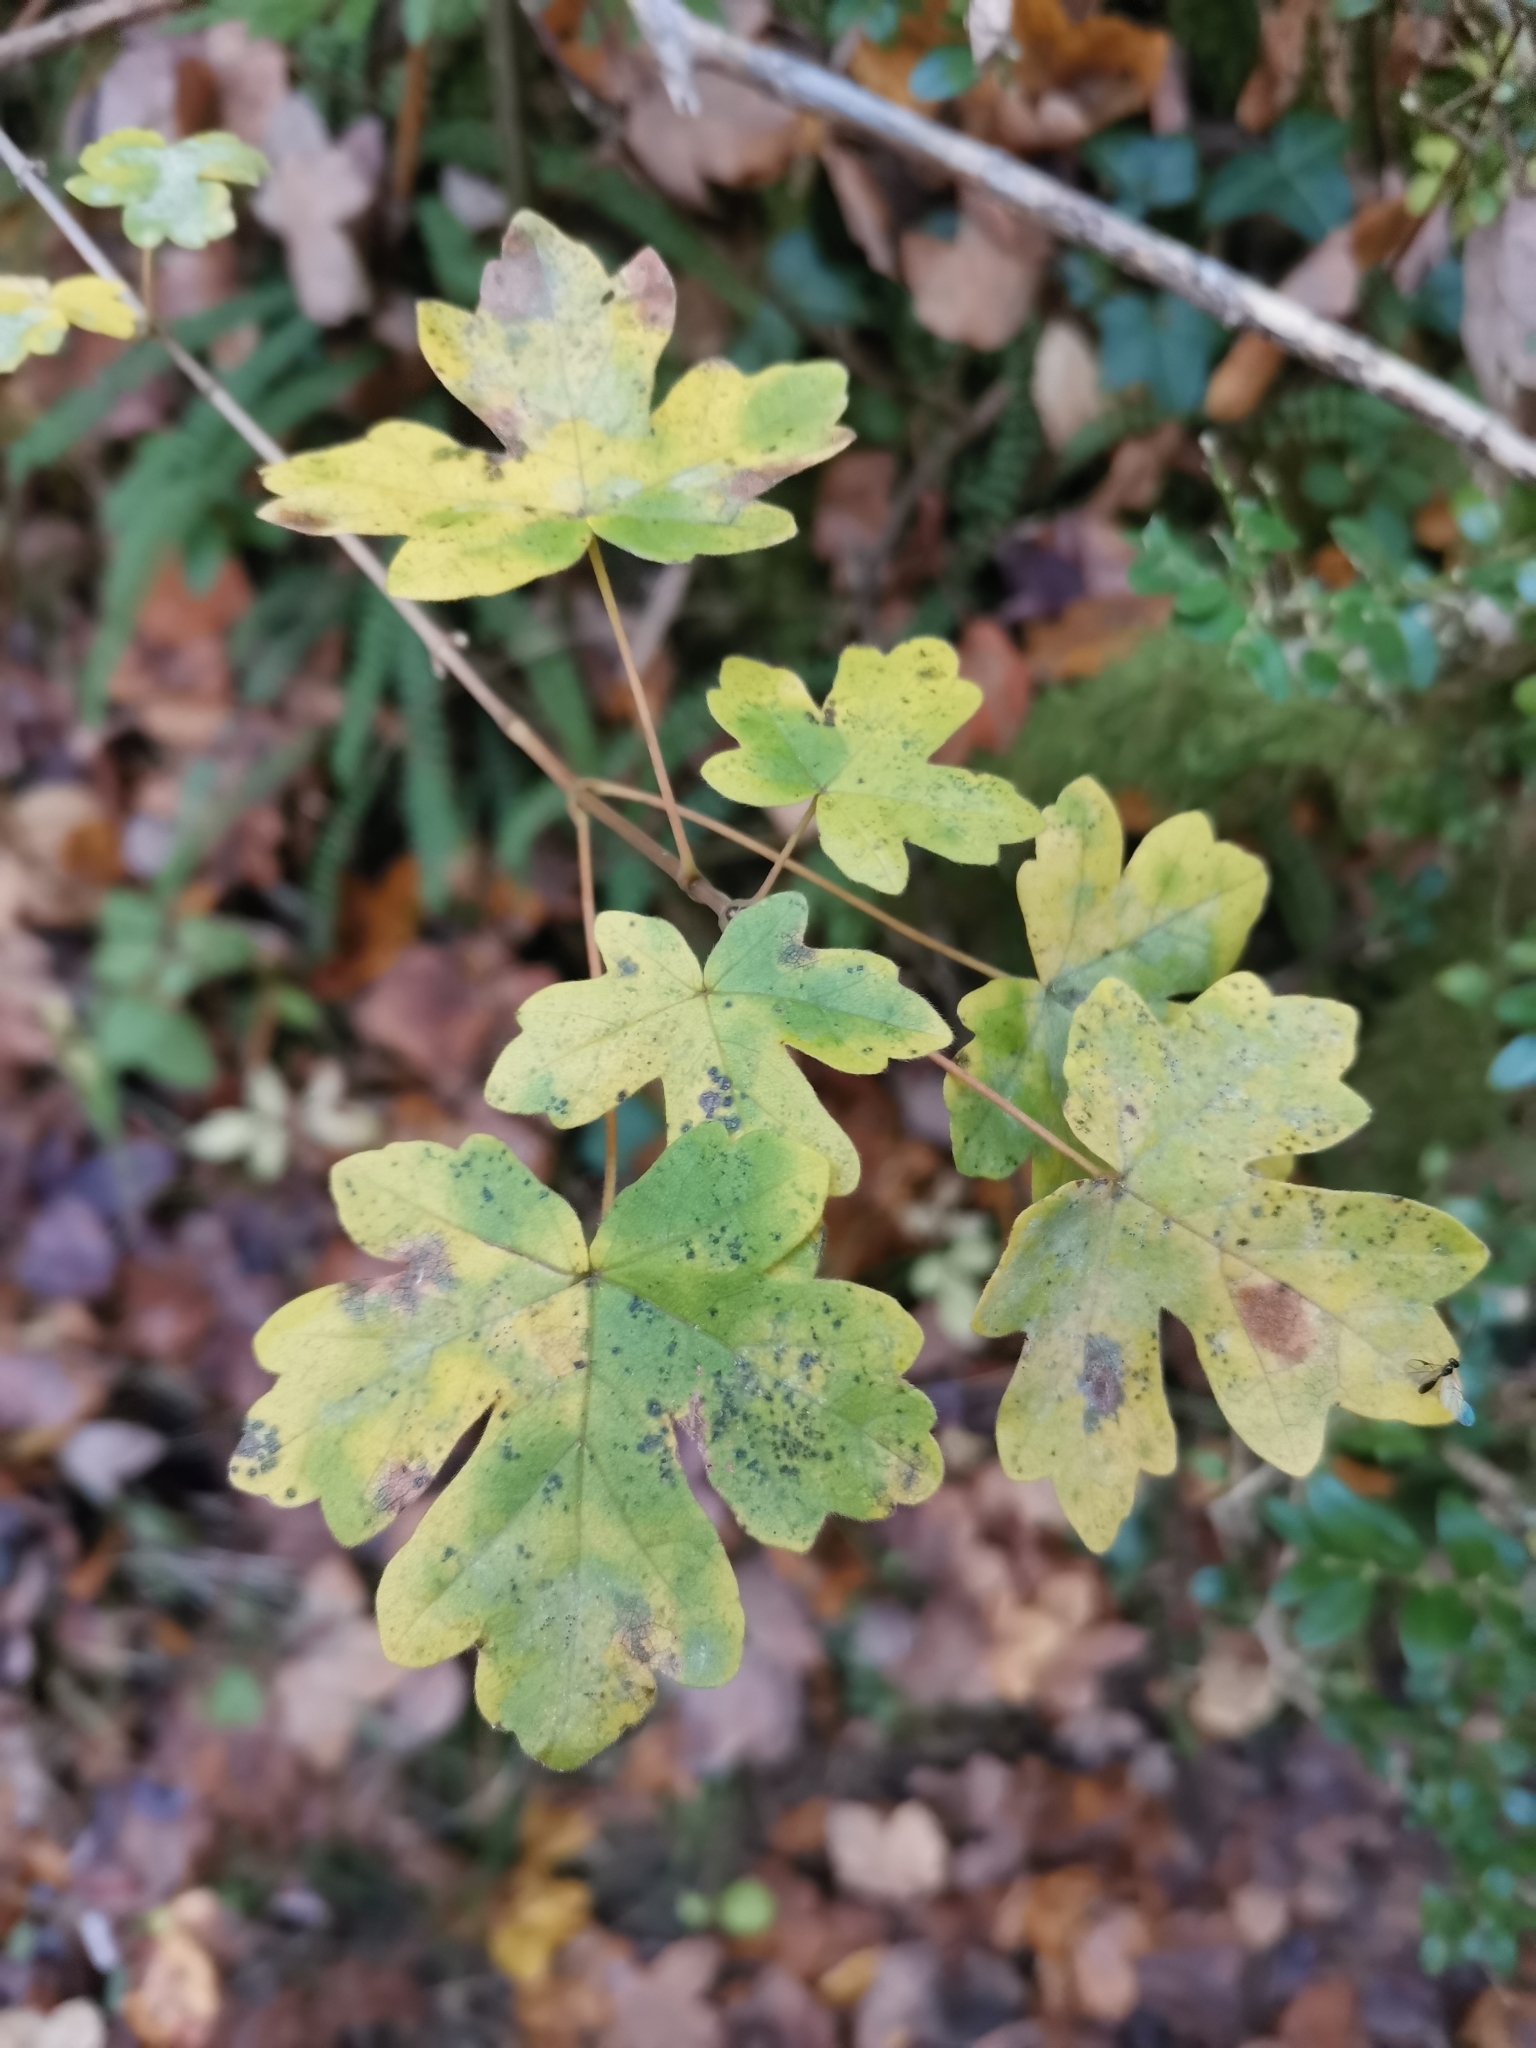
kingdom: Plantae
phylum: Tracheophyta
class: Magnoliopsida
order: Sapindales
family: Sapindaceae
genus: Acer
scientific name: Acer campestre
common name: Field maple
